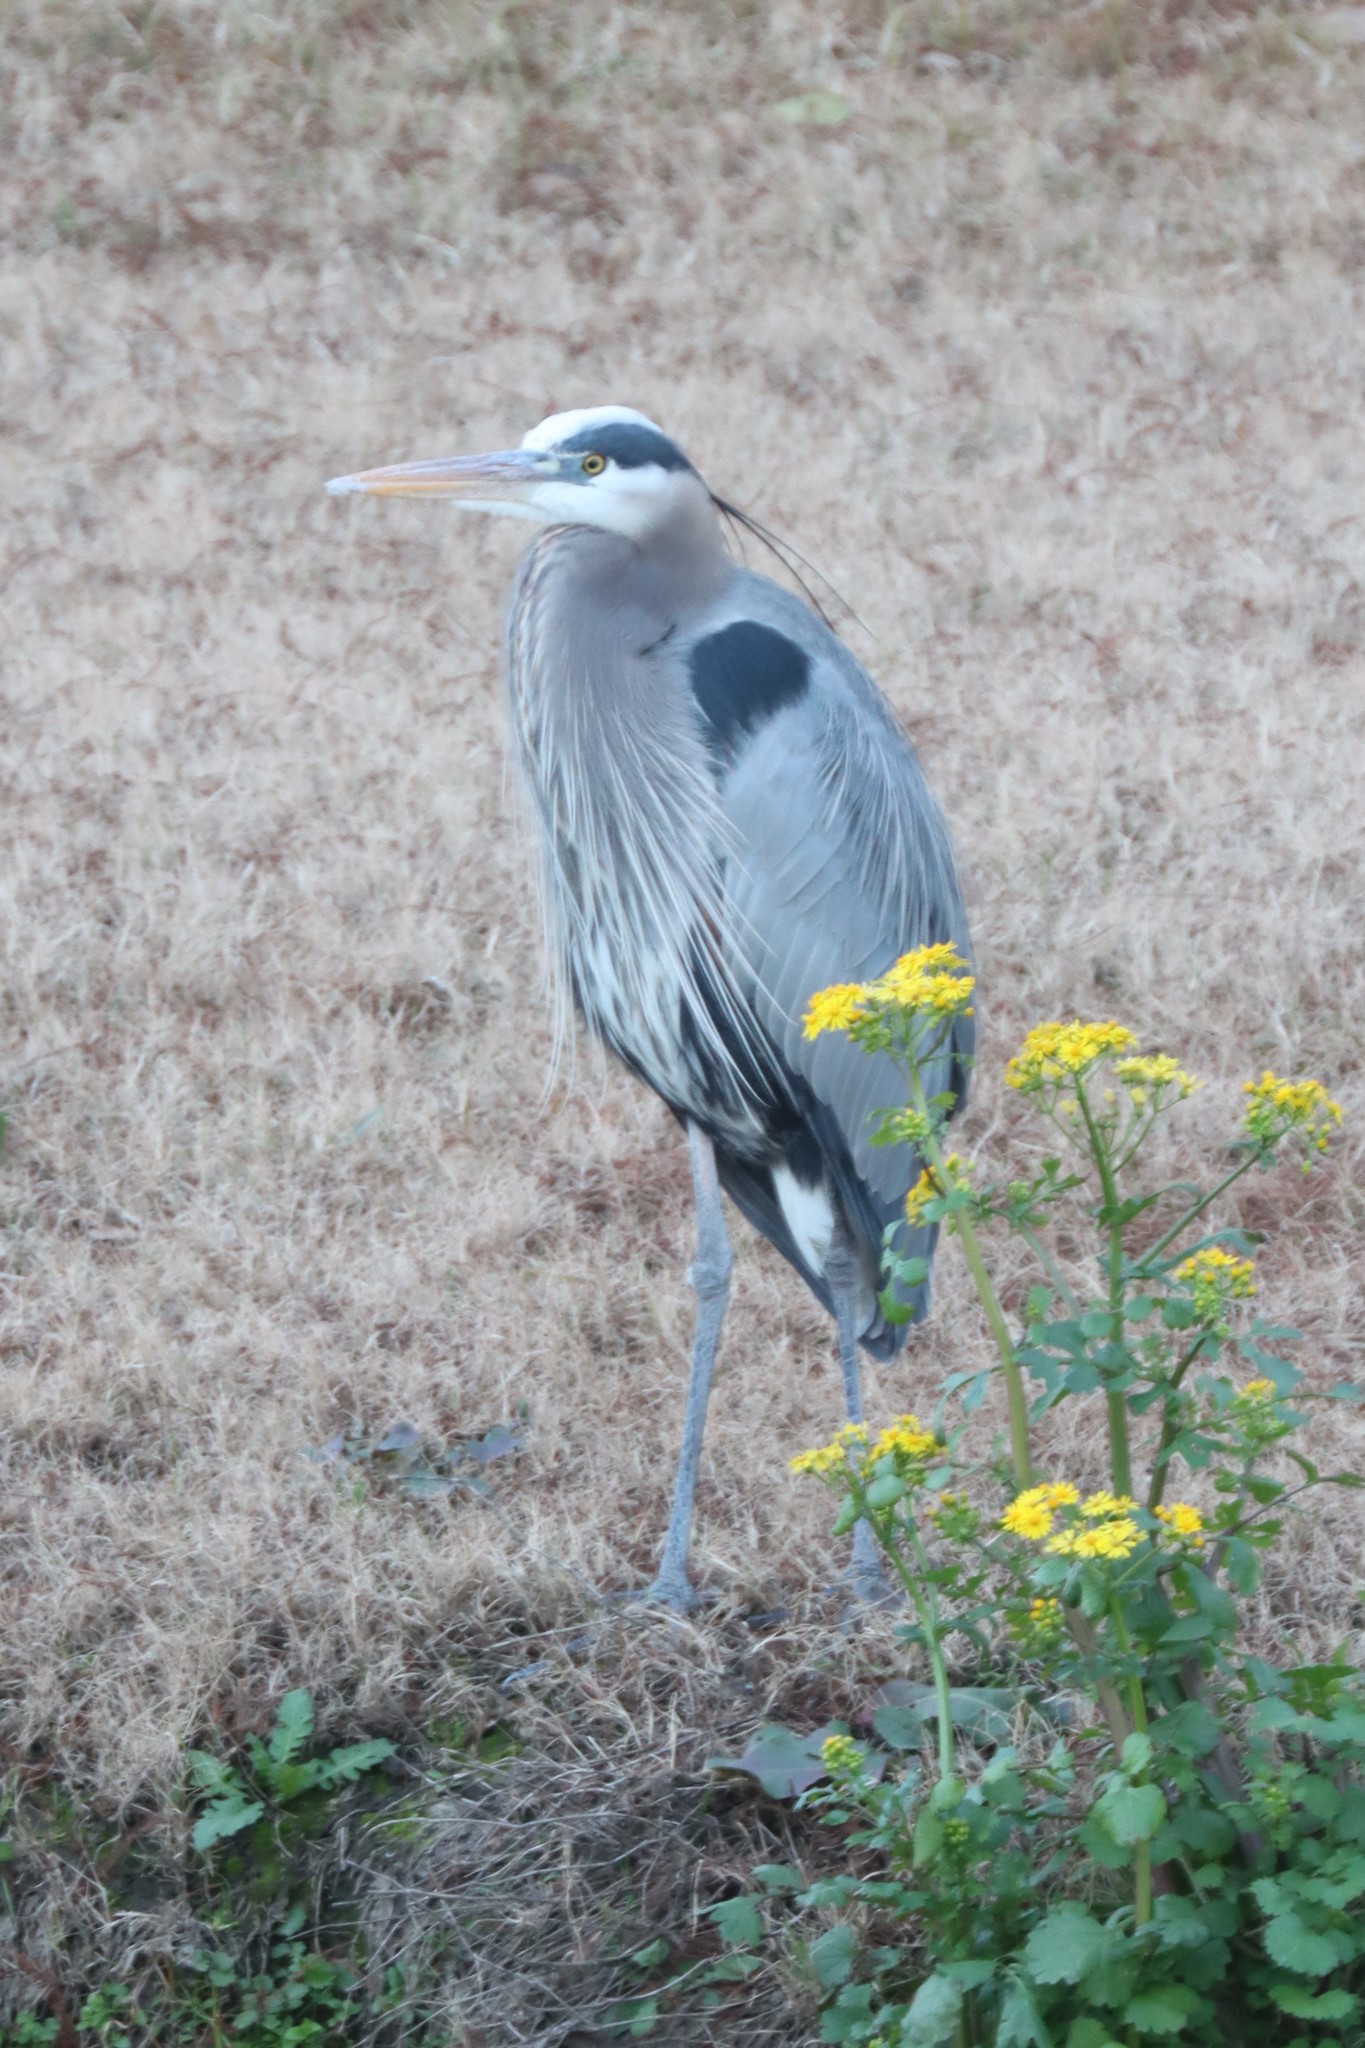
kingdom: Animalia
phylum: Chordata
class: Aves
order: Pelecaniformes
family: Ardeidae
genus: Ardea
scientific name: Ardea herodias
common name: Great blue heron
